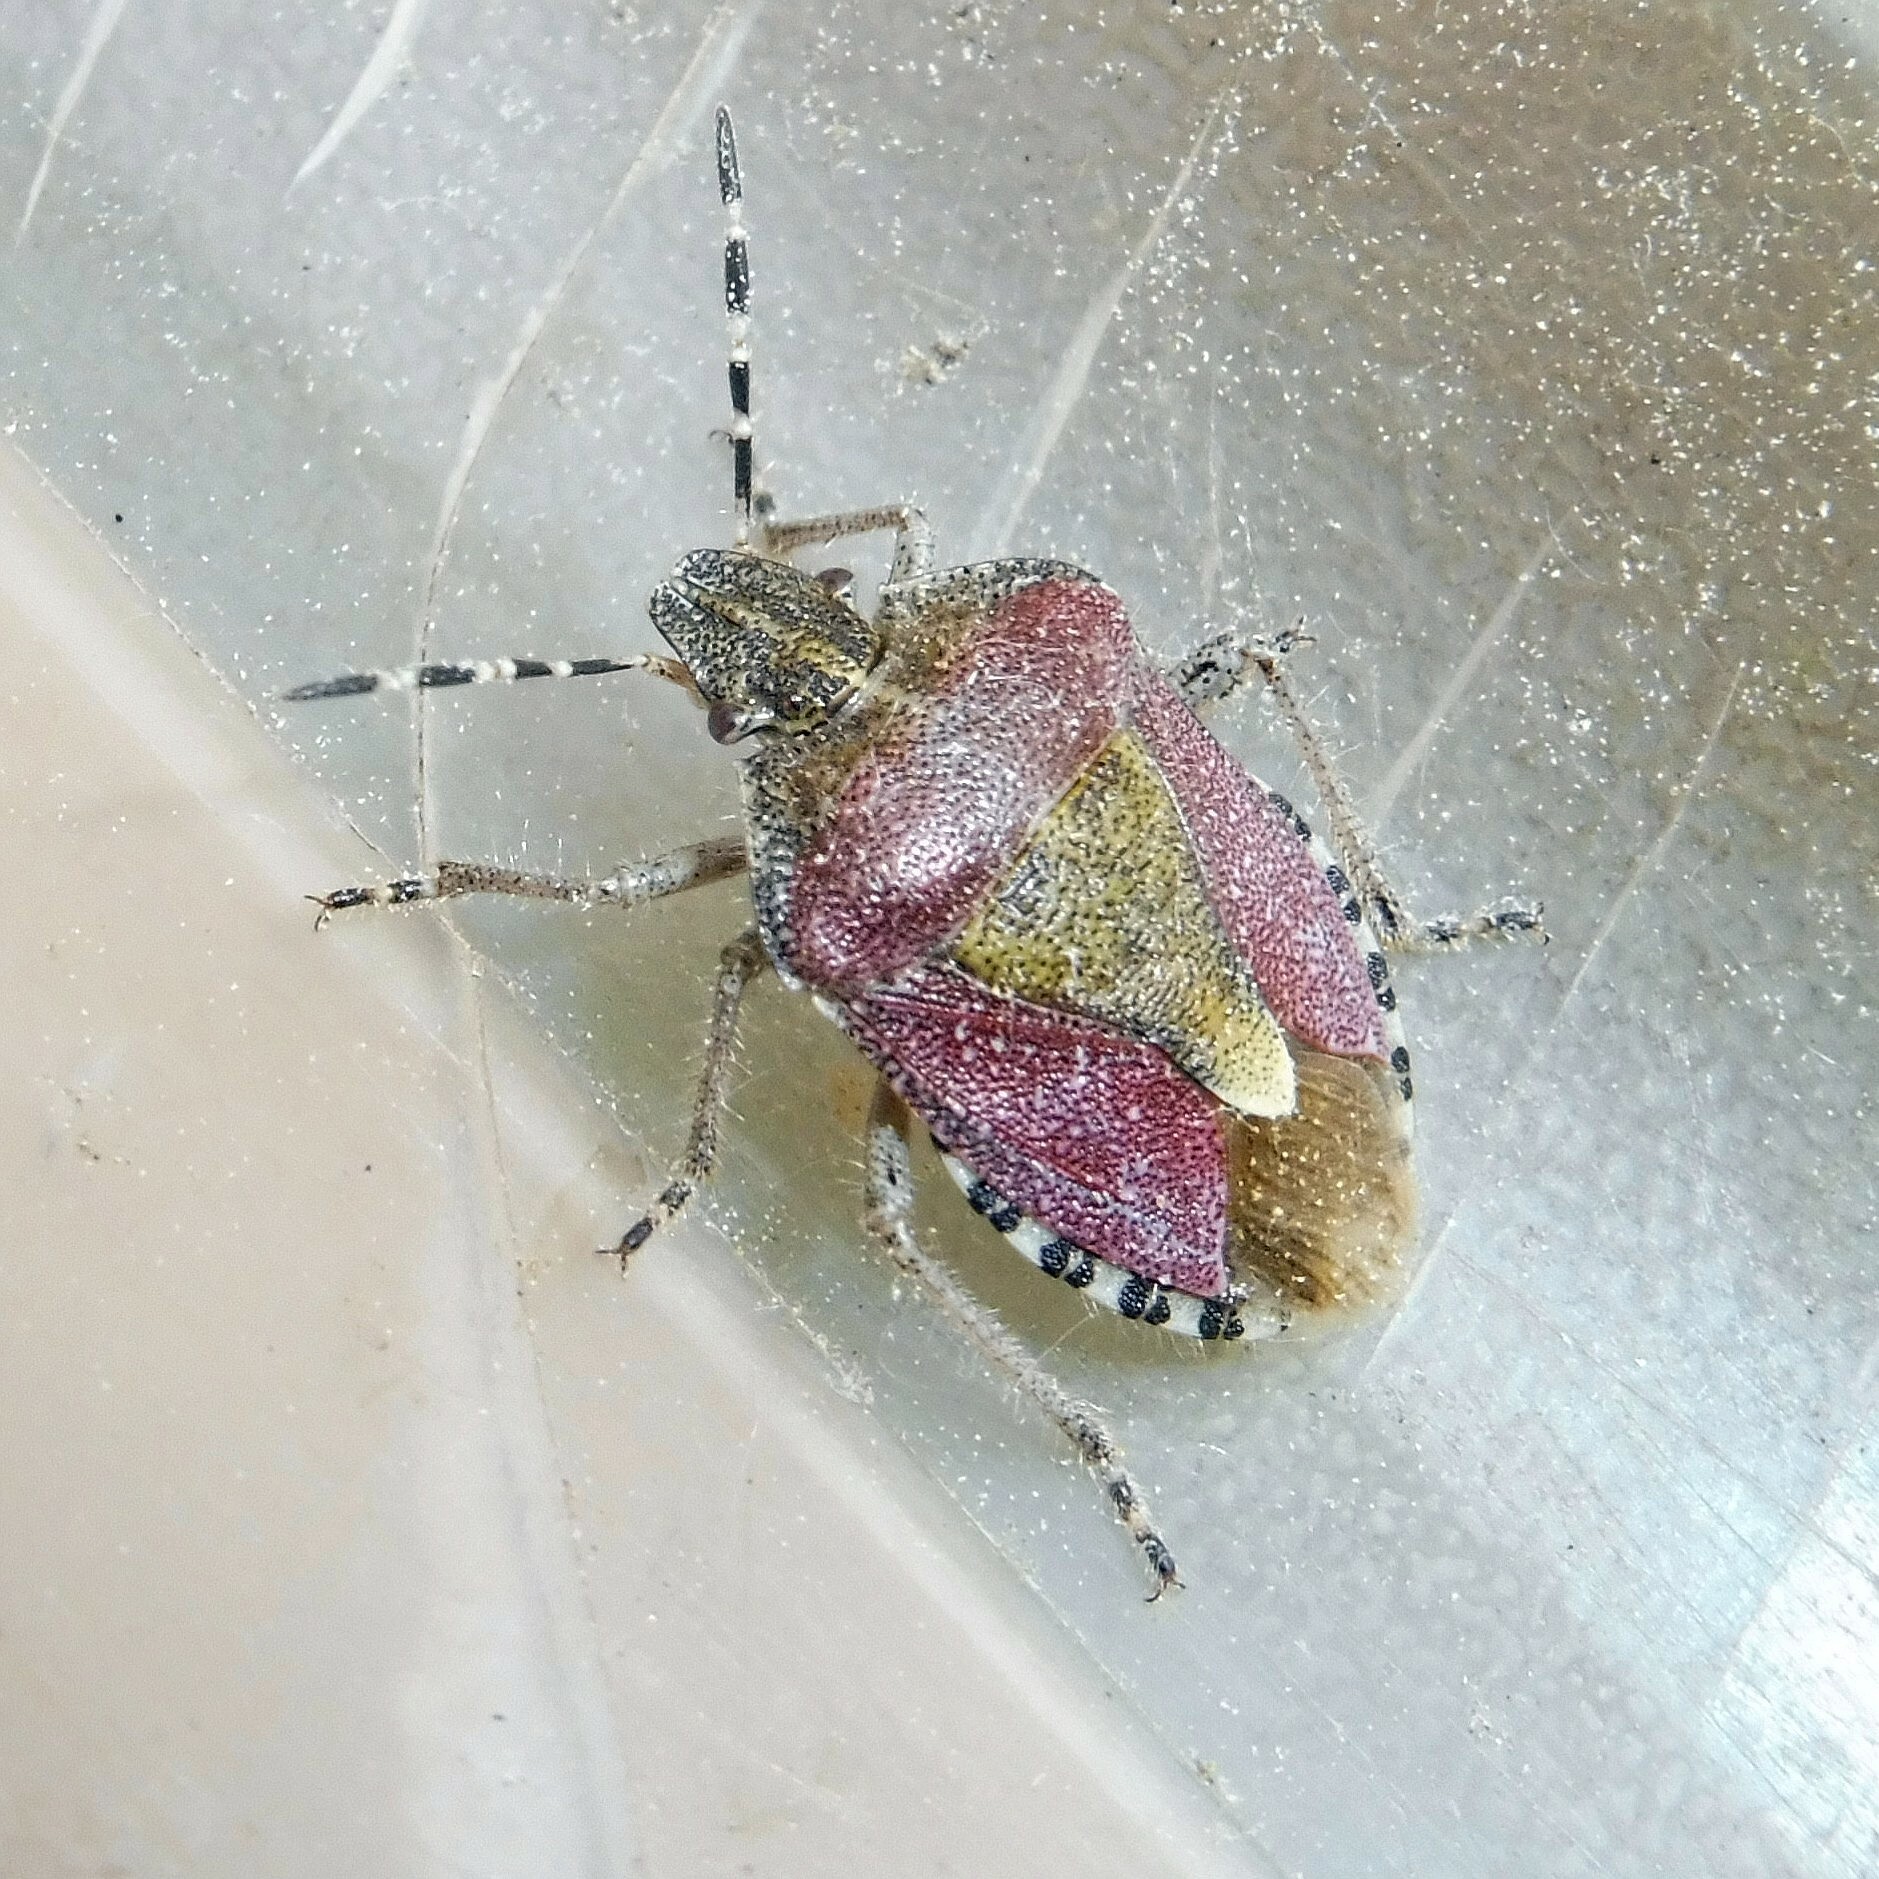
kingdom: Animalia
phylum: Arthropoda
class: Insecta
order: Hemiptera
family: Pentatomidae
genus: Dolycoris
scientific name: Dolycoris baccarum
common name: Sloe bug
